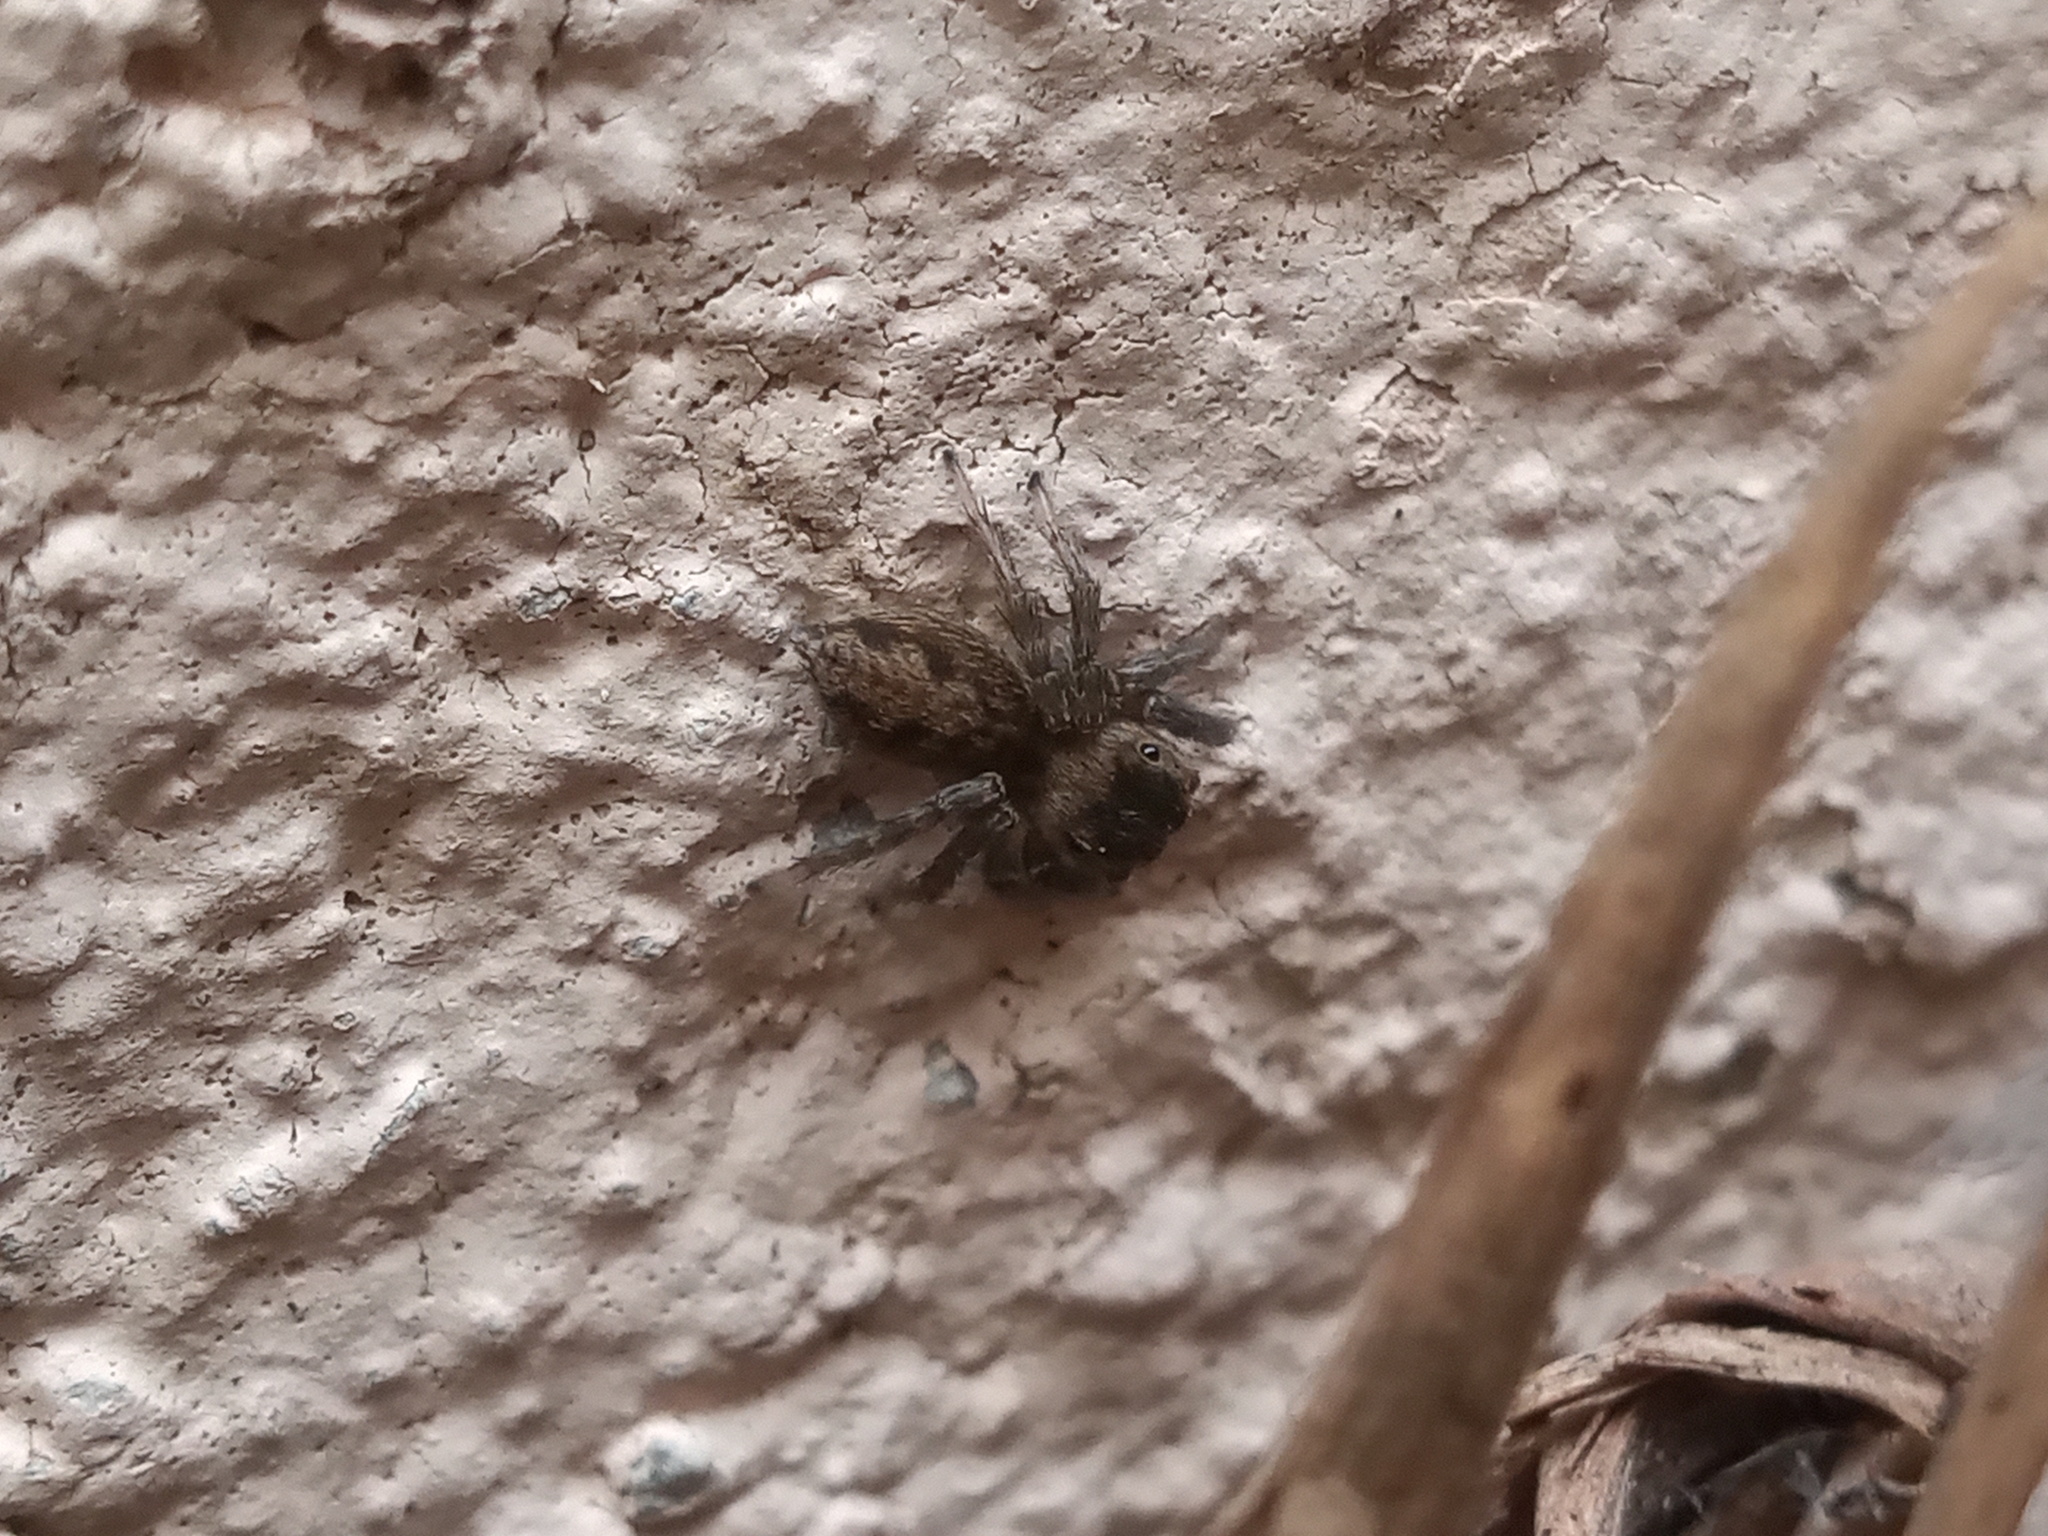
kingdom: Animalia
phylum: Arthropoda
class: Arachnida
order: Araneae
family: Salticidae
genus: Hasarius
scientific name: Hasarius adansoni
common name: Jumping spider
